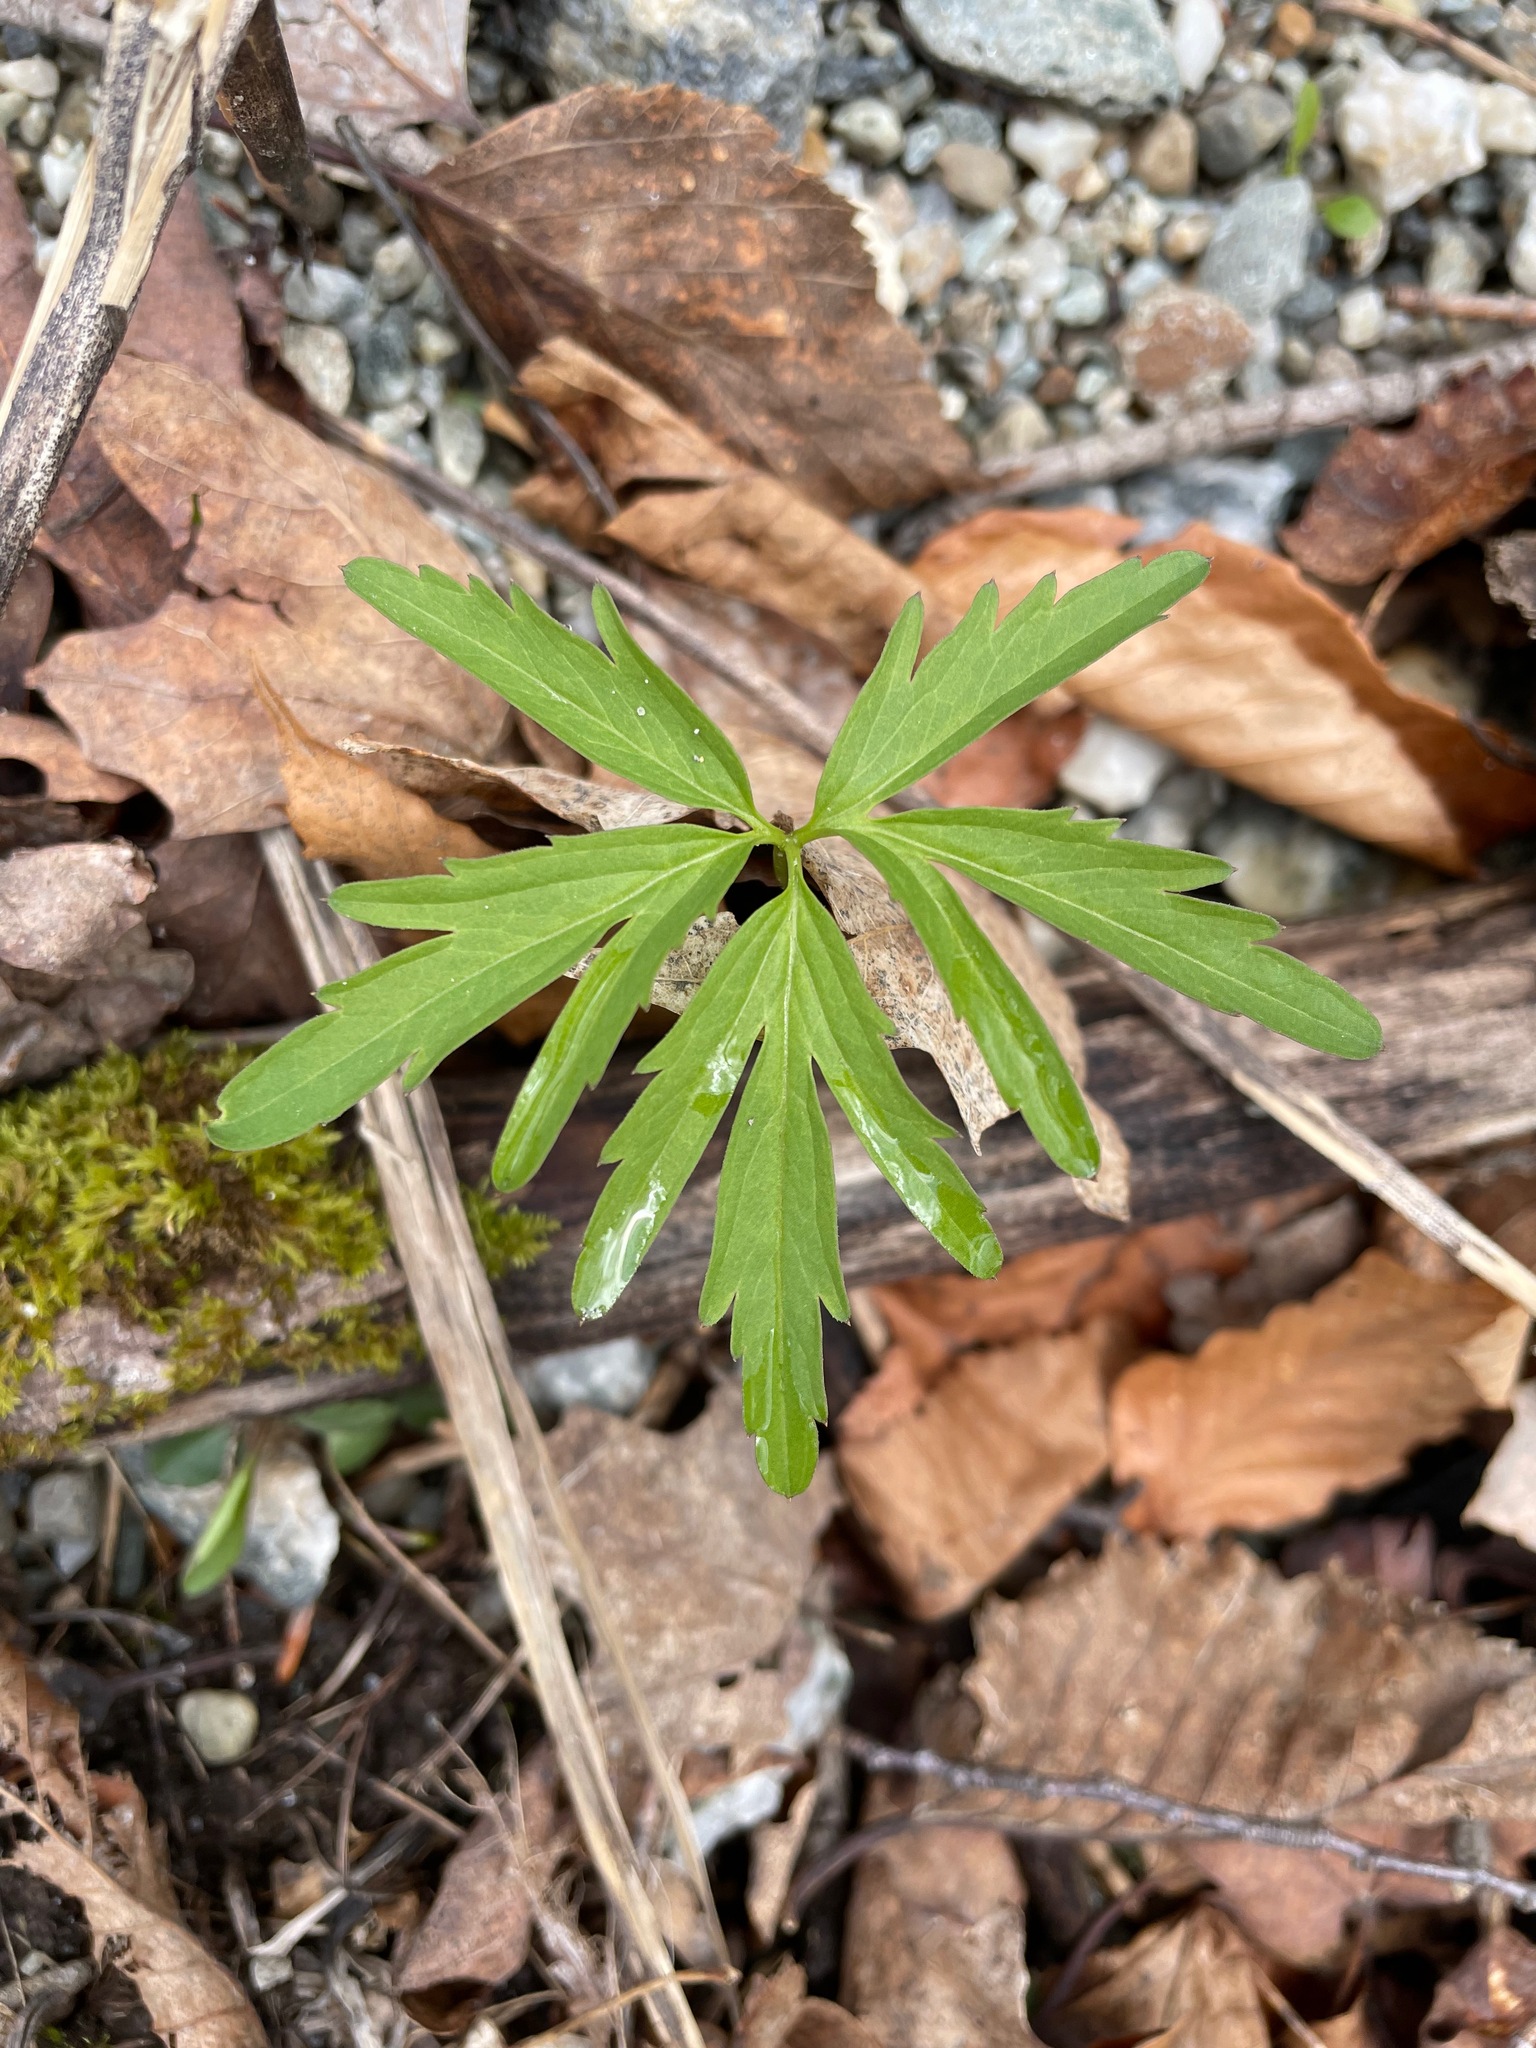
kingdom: Plantae
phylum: Tracheophyta
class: Magnoliopsida
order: Brassicales
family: Brassicaceae
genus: Cardamine
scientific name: Cardamine concatenata
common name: Cut-leaf toothcup
